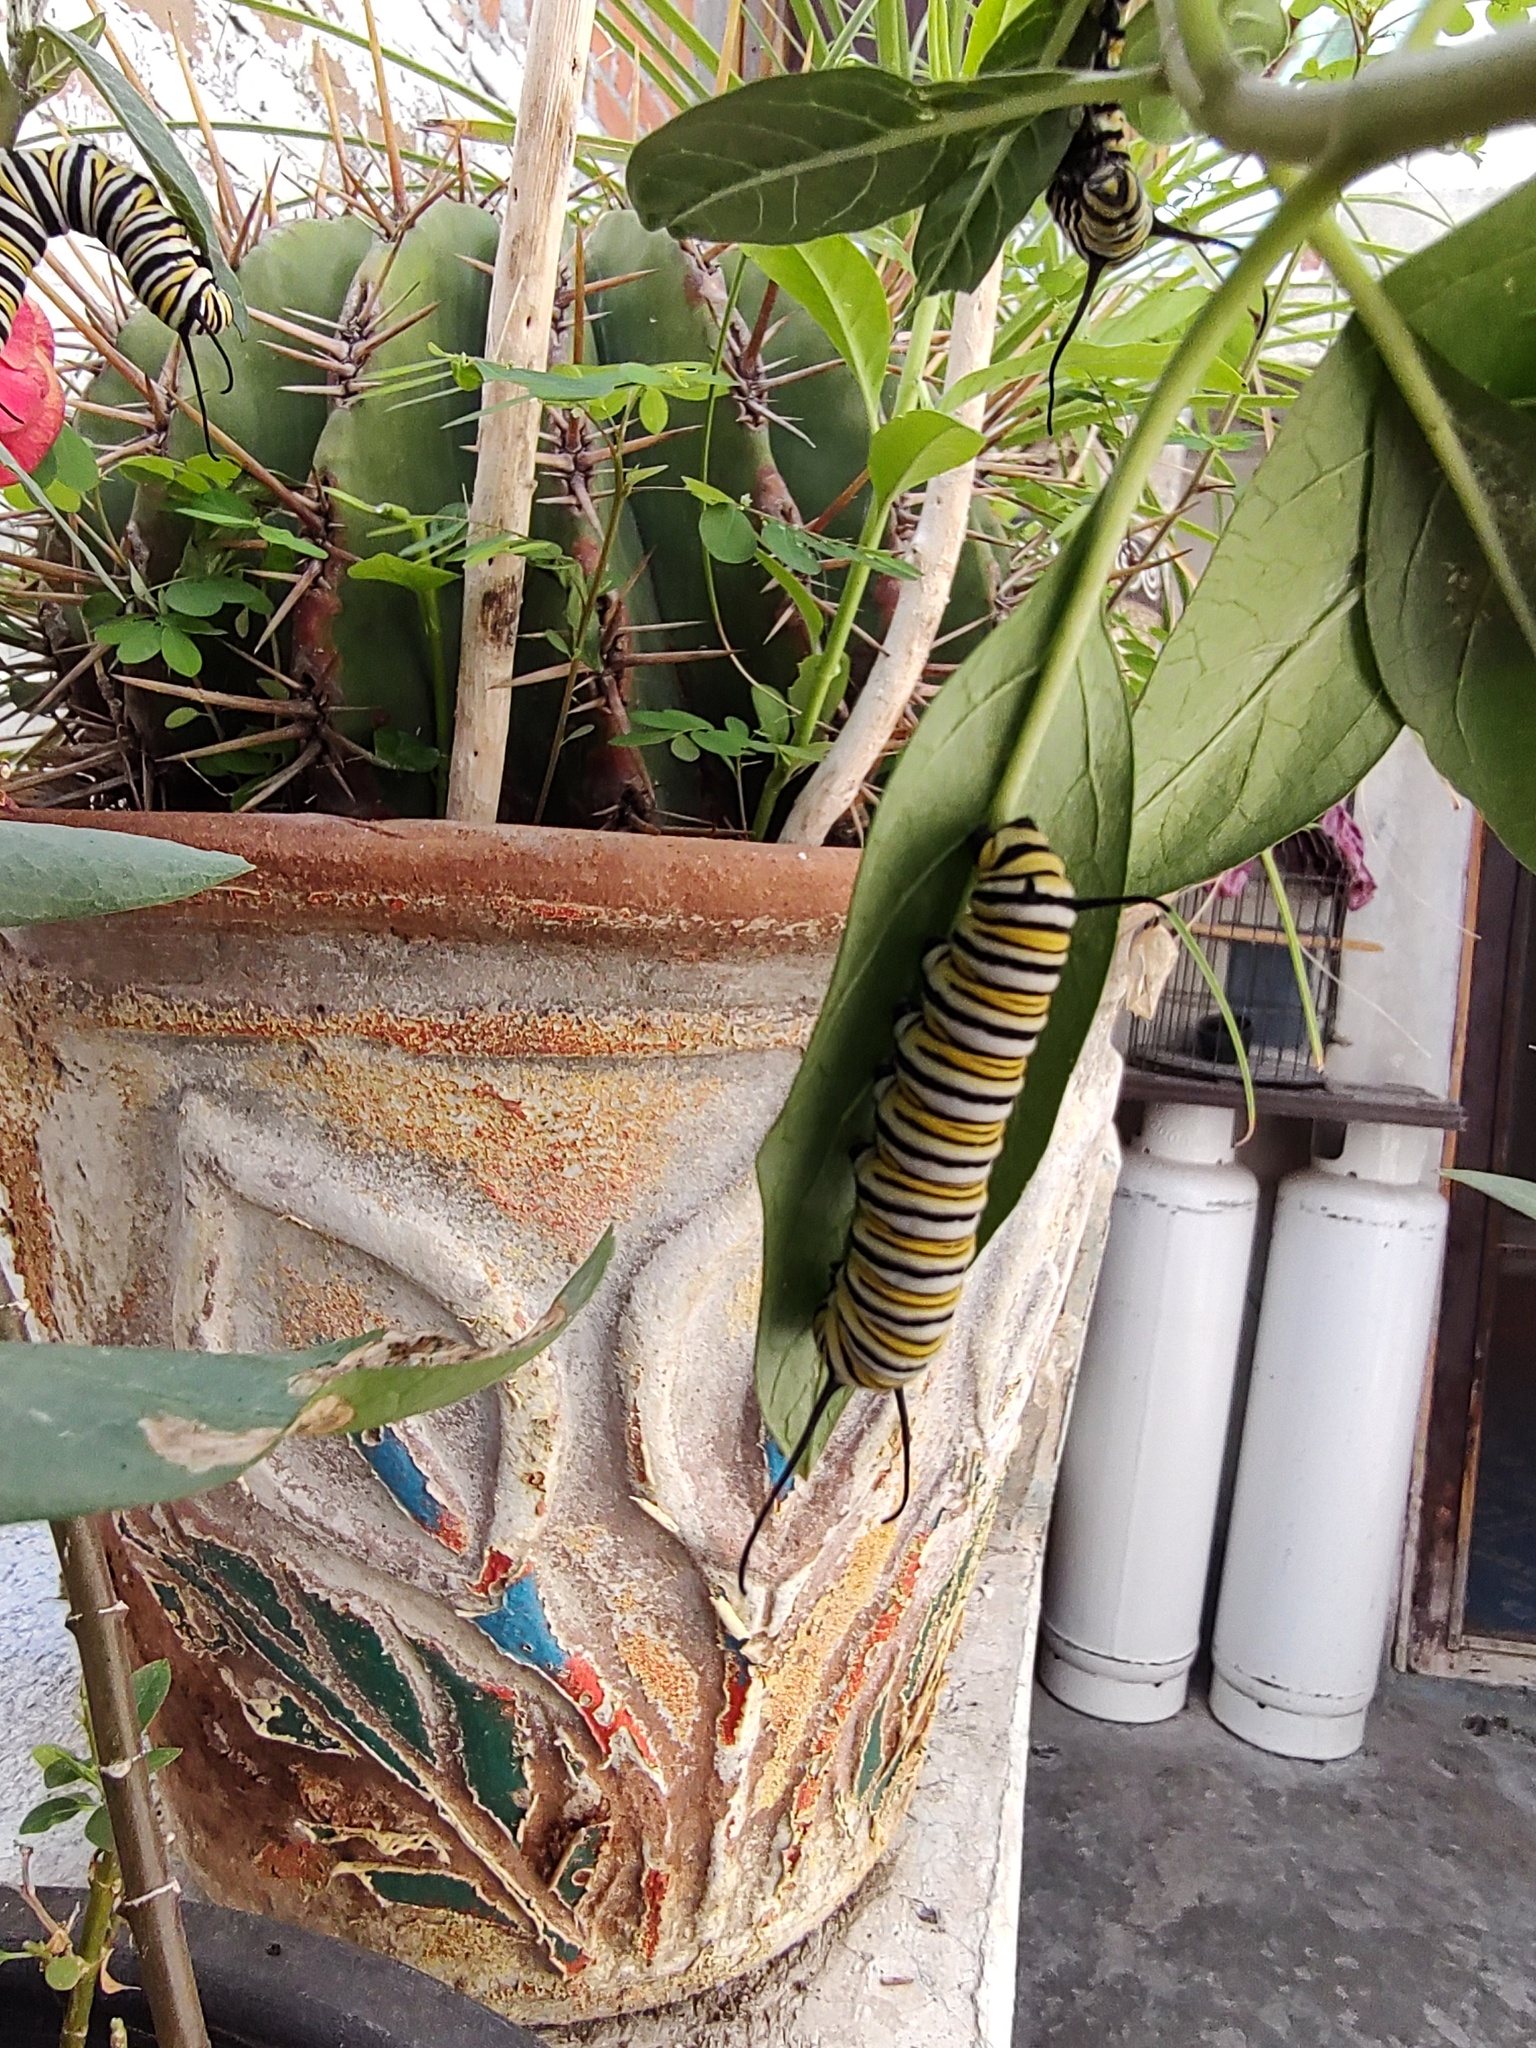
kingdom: Animalia
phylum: Arthropoda
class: Insecta
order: Lepidoptera
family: Nymphalidae
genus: Danaus
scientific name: Danaus plexippus
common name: Monarch
